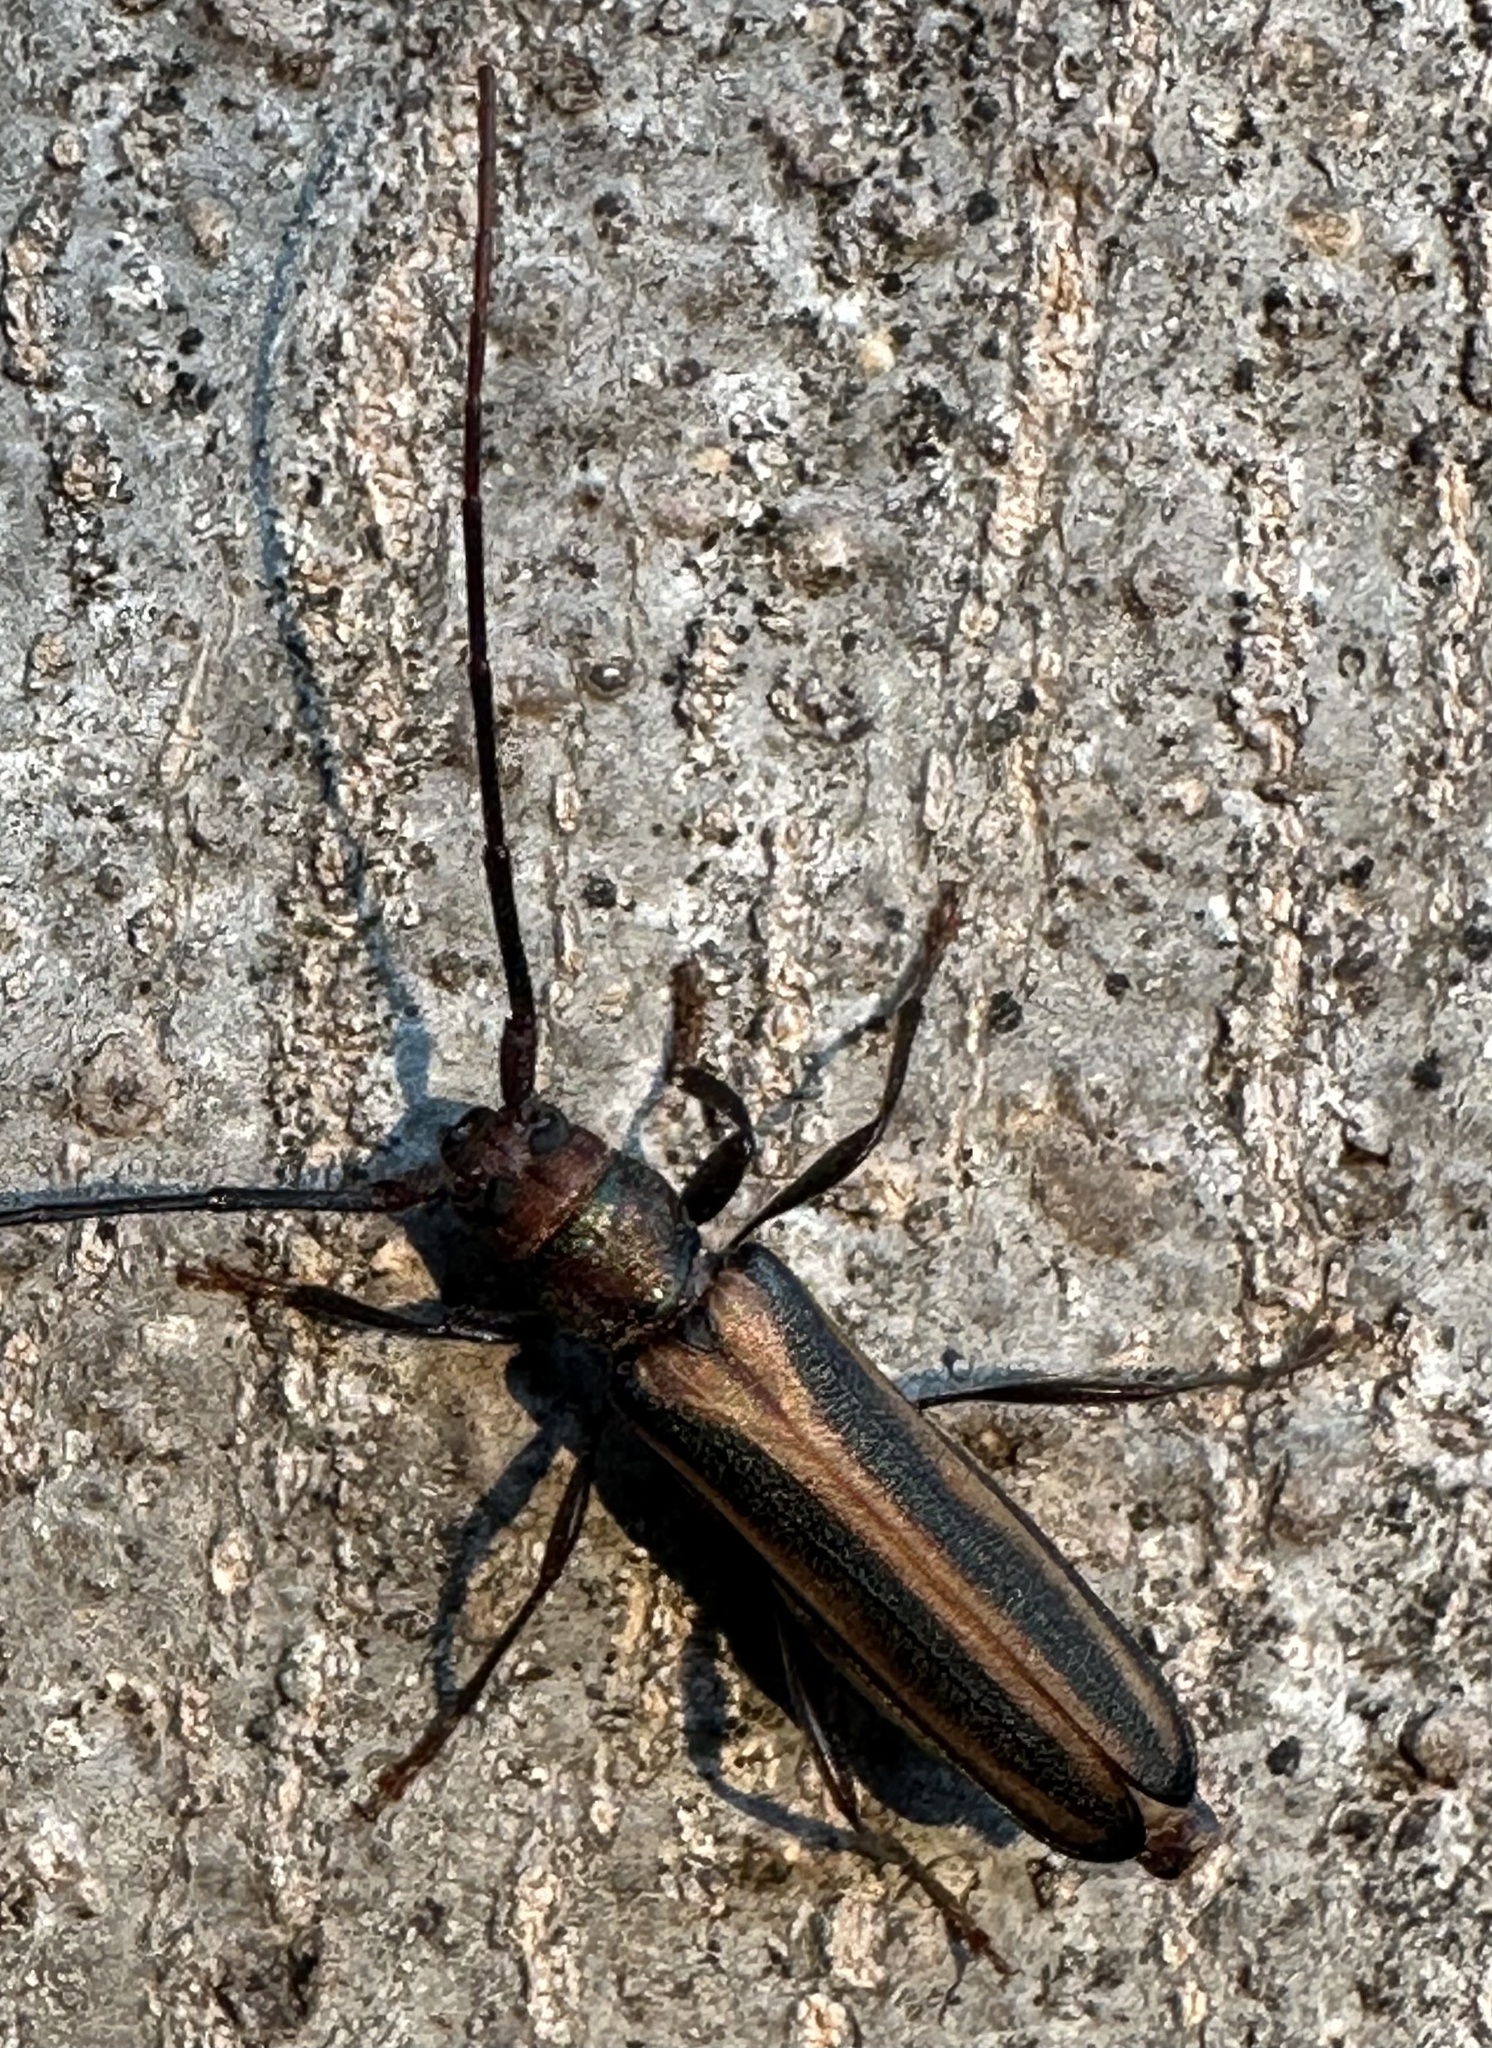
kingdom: Animalia
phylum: Arthropoda
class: Insecta
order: Coleoptera
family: Cerambycidae
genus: Xystrocera
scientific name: Xystrocera dispar
